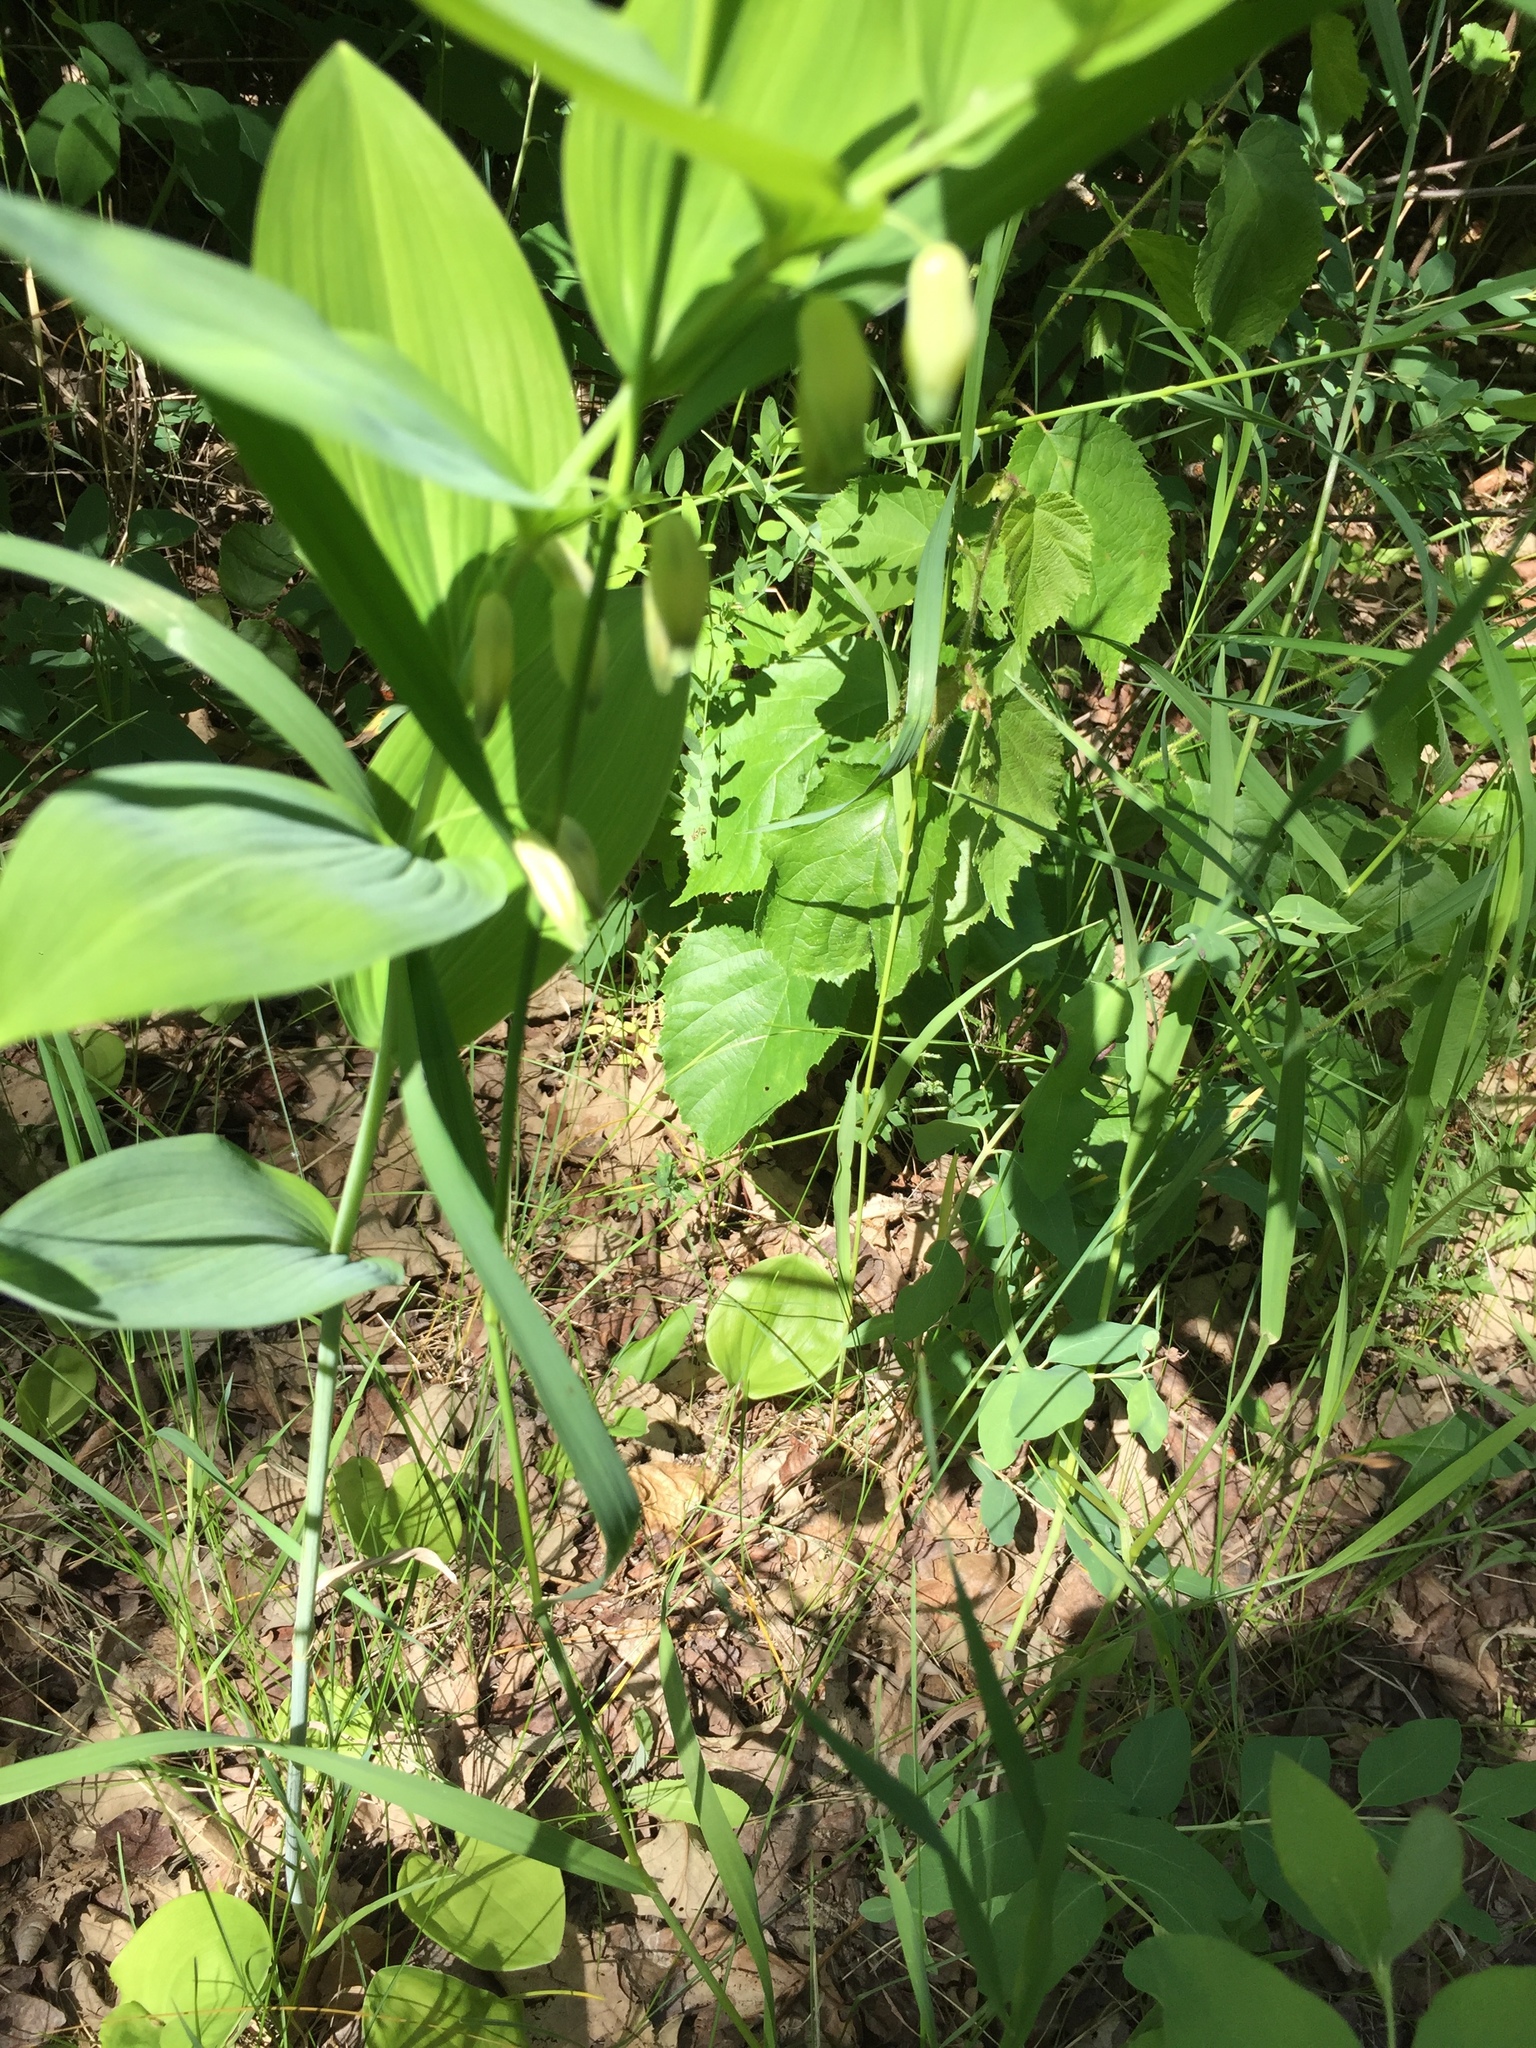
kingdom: Plantae
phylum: Tracheophyta
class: Liliopsida
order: Asparagales
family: Asparagaceae
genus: Polygonatum
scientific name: Polygonatum biflorum
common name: American solomon's-seal
